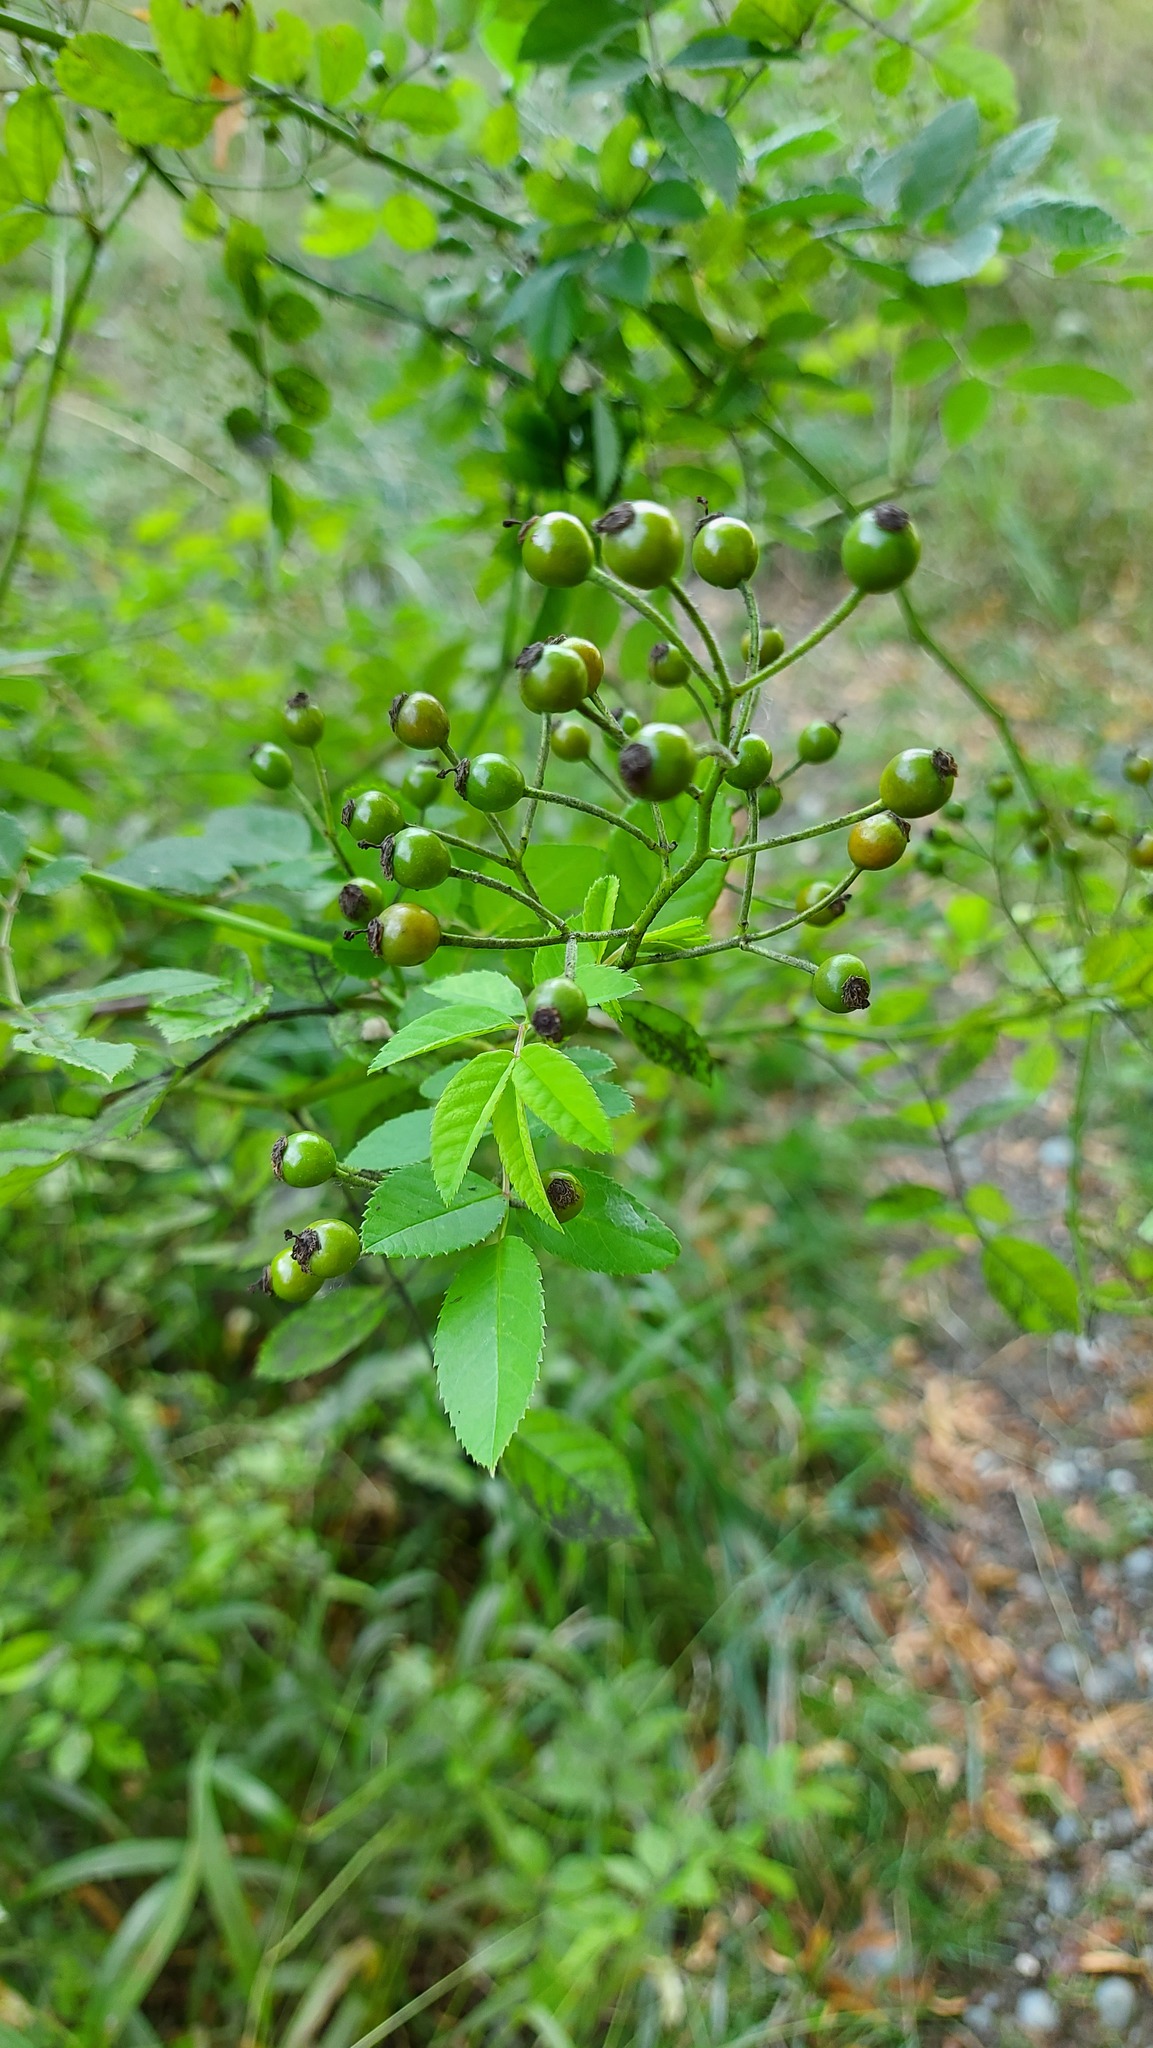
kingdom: Plantae
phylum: Tracheophyta
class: Magnoliopsida
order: Rosales
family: Rosaceae
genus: Rosa
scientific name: Rosa multiflora
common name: Multiflora rose
